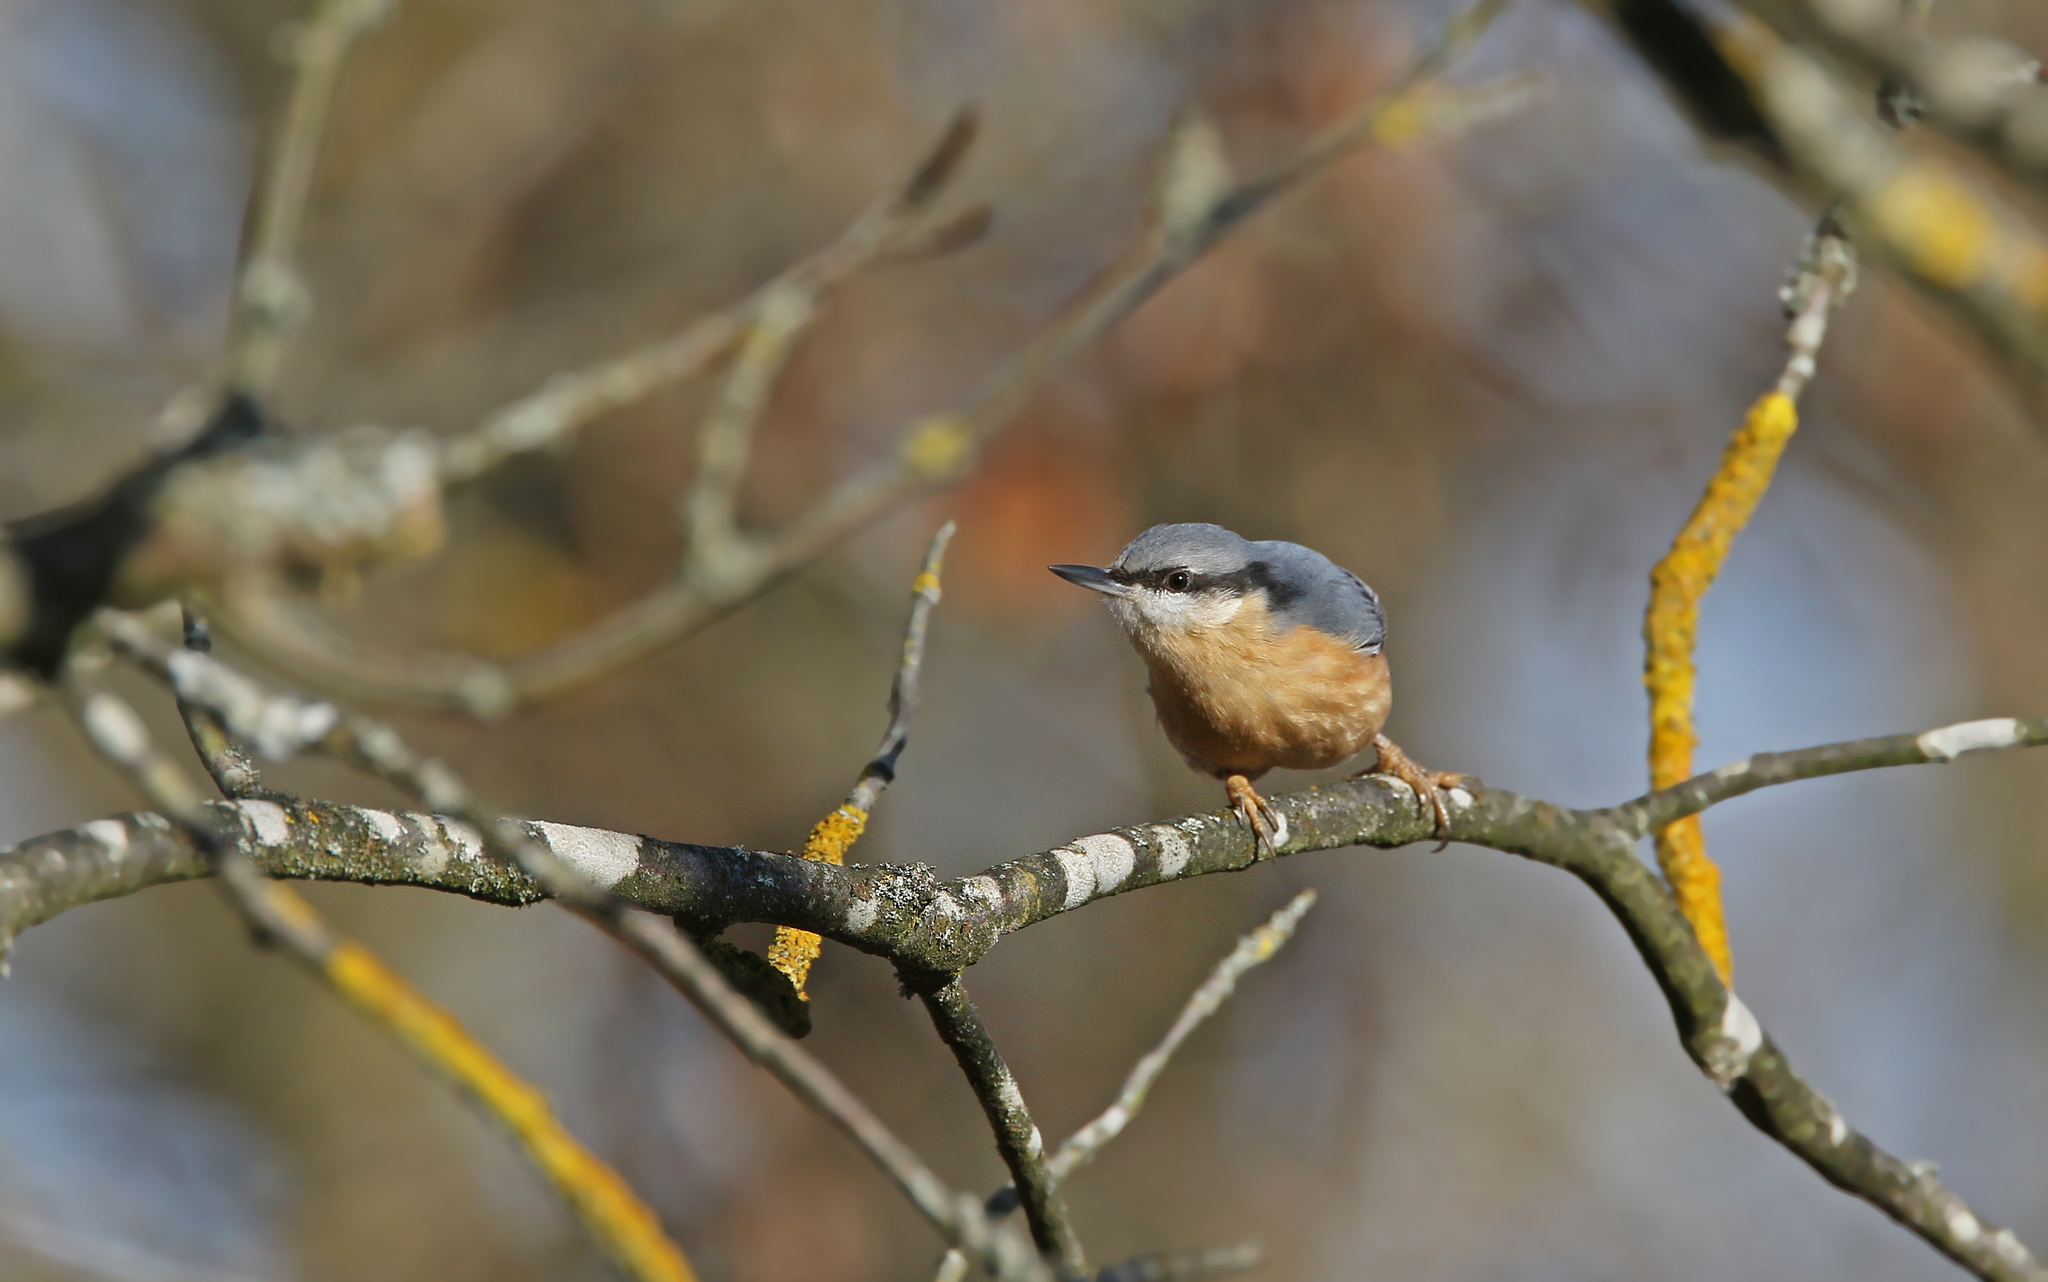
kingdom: Animalia
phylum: Chordata
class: Aves
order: Passeriformes
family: Sittidae
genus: Sitta
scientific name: Sitta europaea
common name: Eurasian nuthatch
